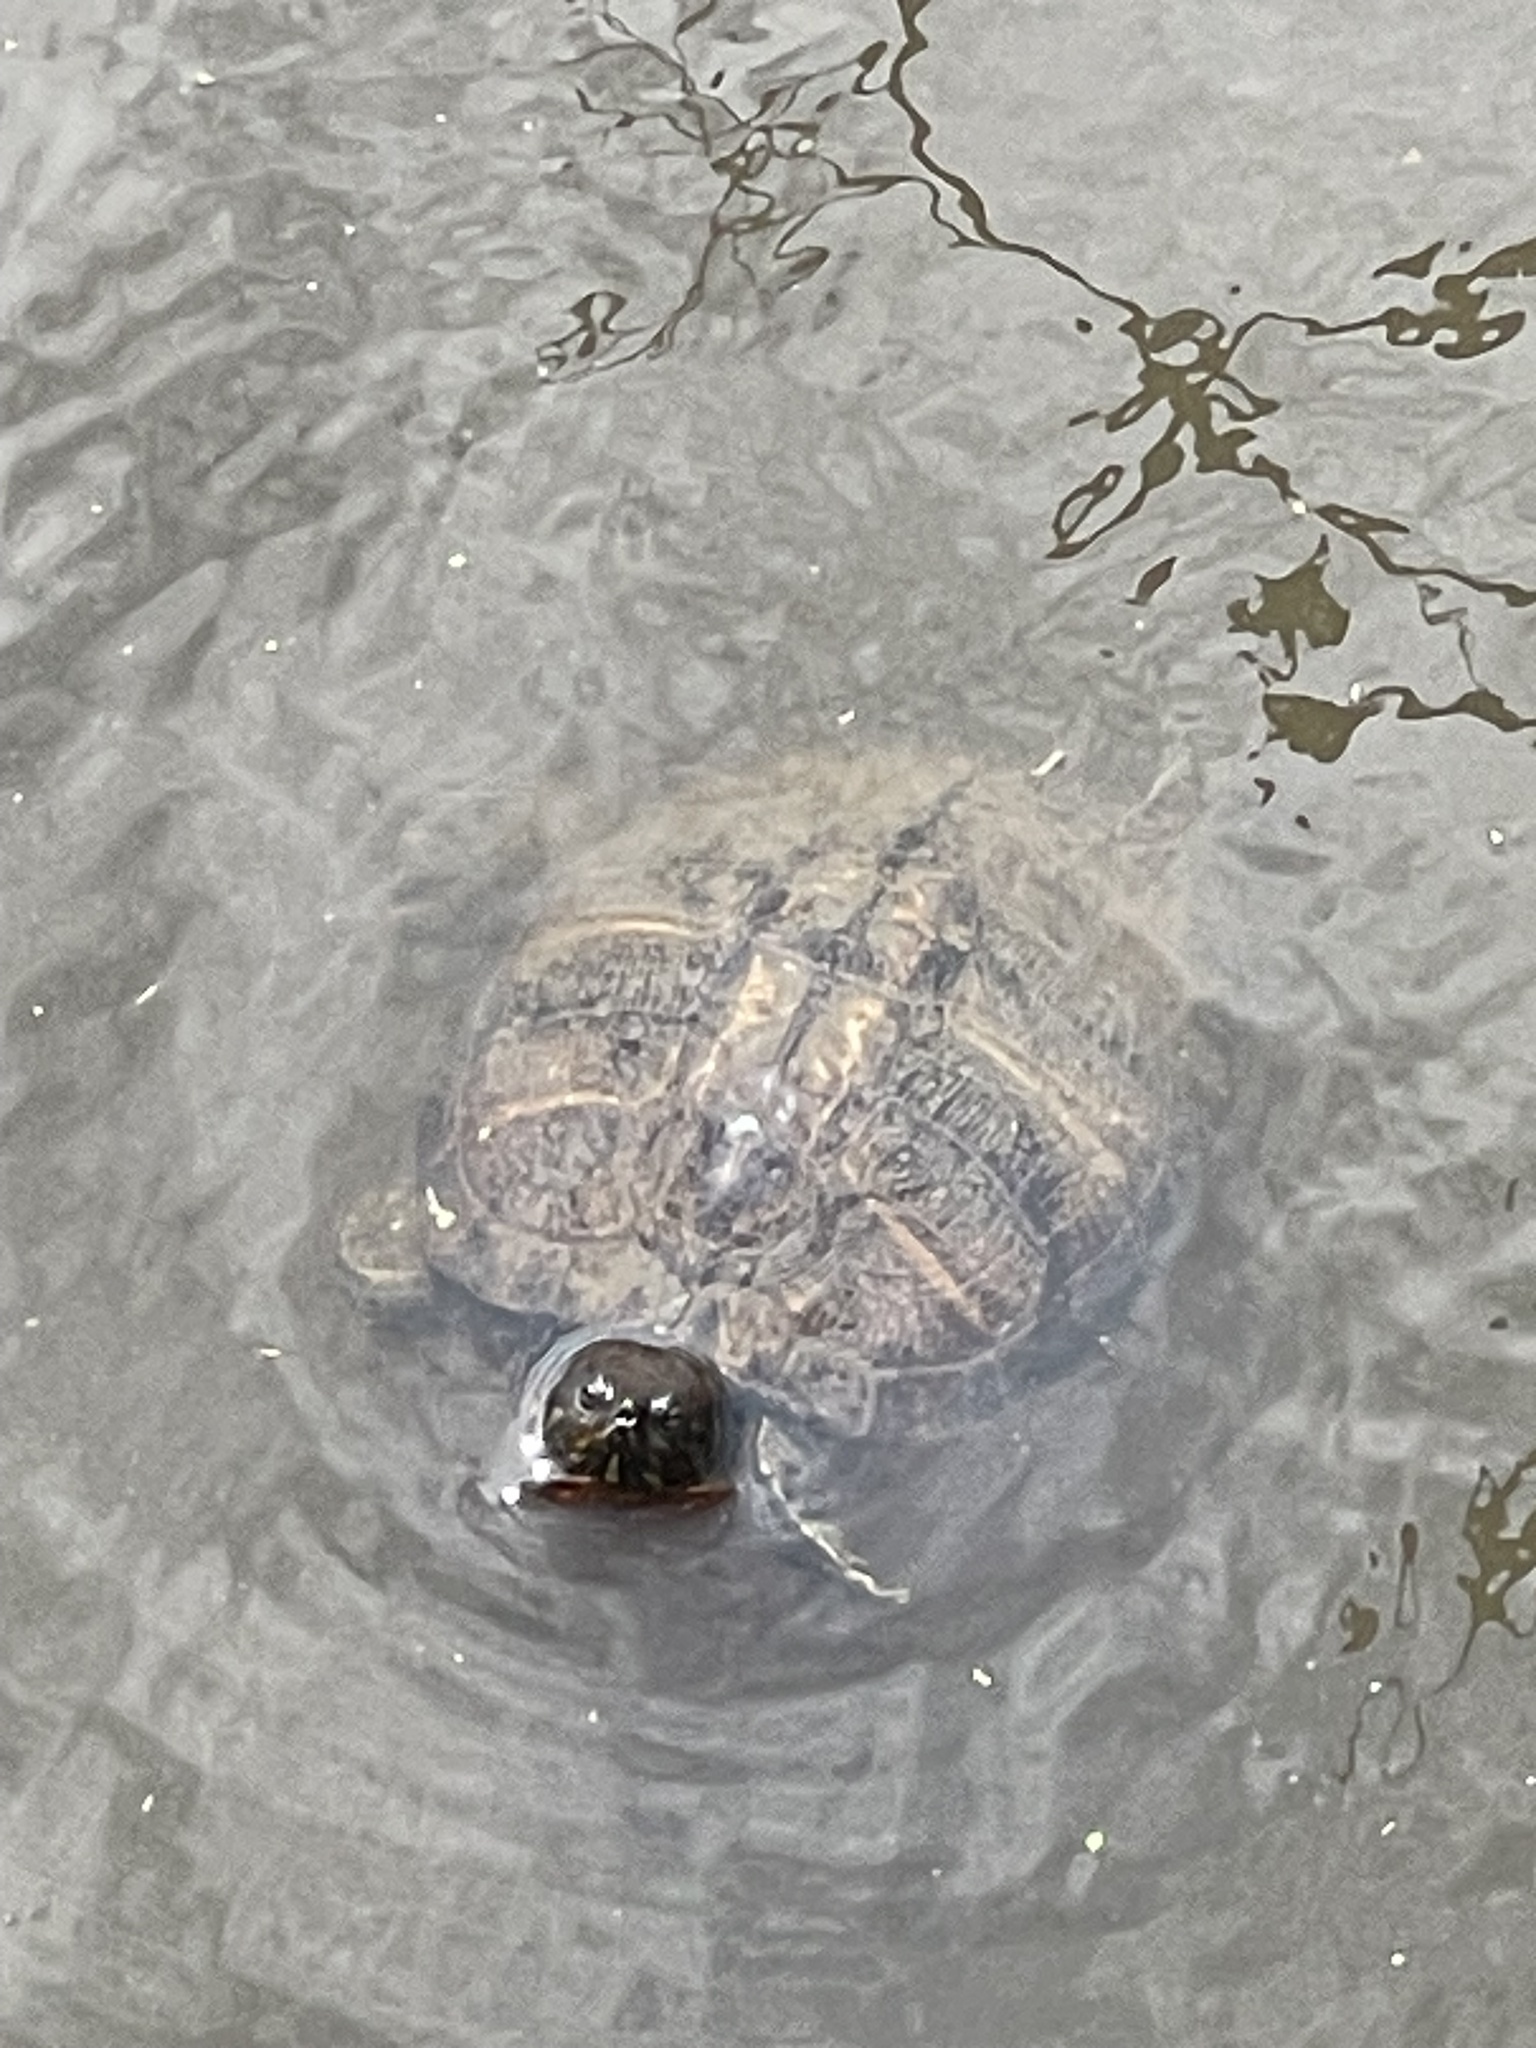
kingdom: Animalia
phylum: Chordata
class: Testudines
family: Emydidae
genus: Trachemys
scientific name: Trachemys scripta
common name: Slider
